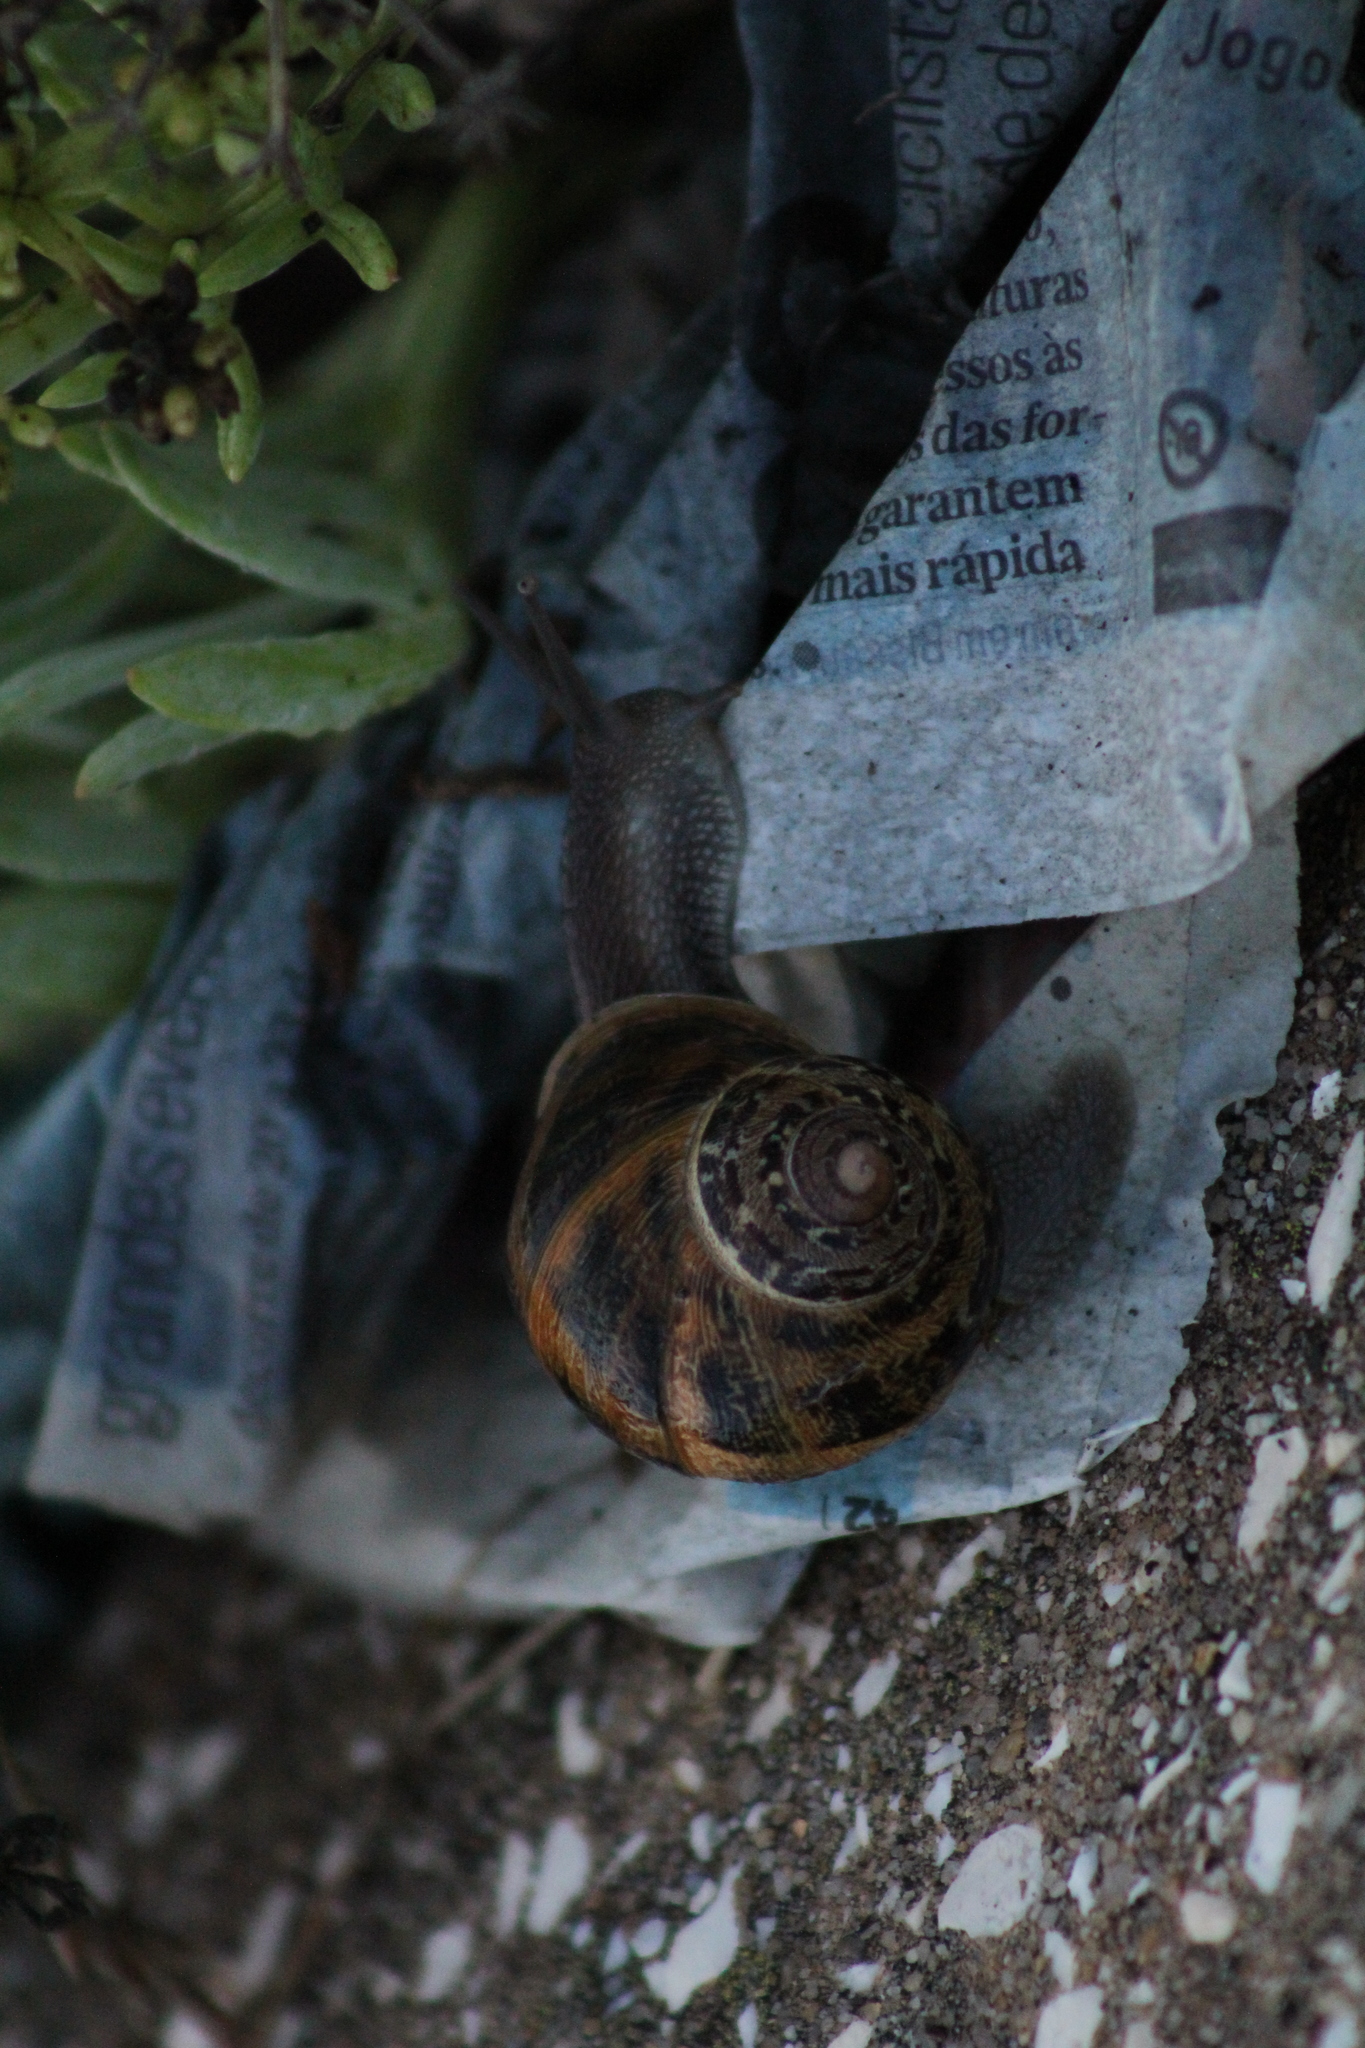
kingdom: Animalia
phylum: Mollusca
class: Gastropoda
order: Stylommatophora
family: Helicidae
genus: Cornu
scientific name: Cornu aspersum
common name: Brown garden snail
